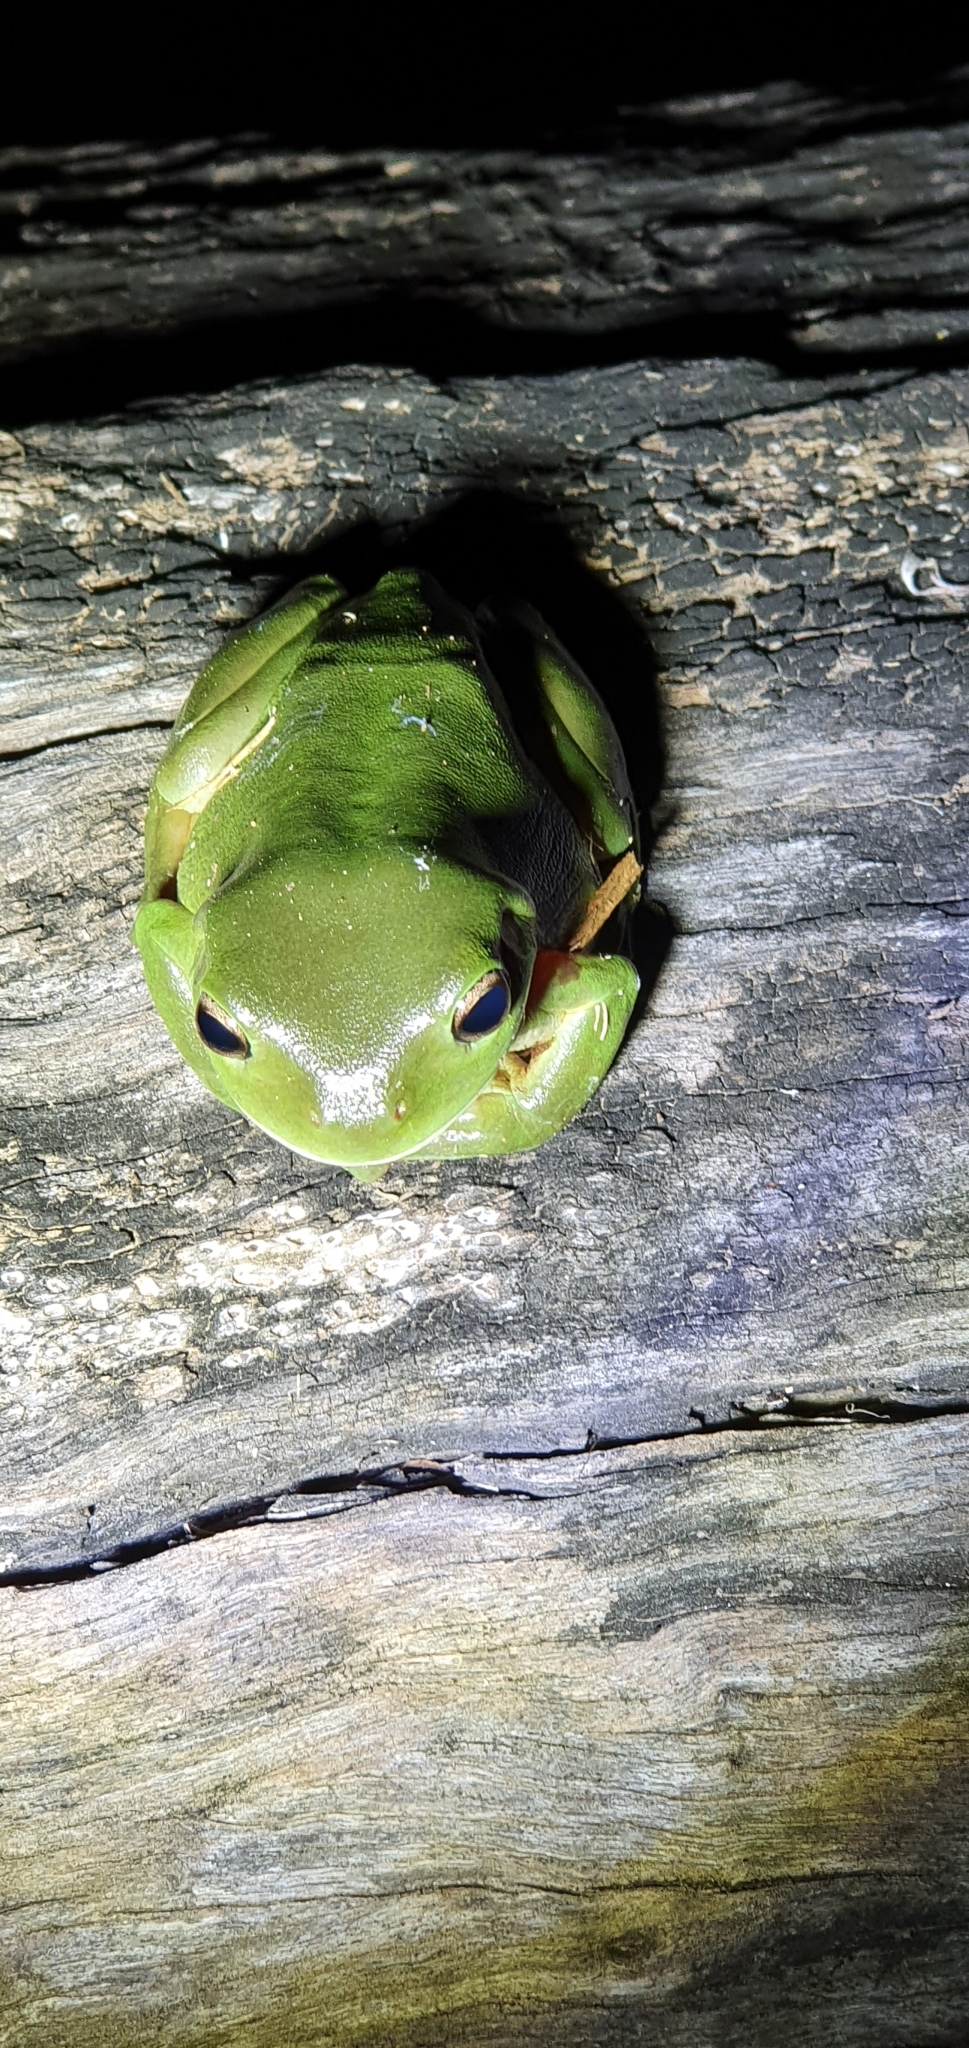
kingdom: Animalia
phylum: Chordata
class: Amphibia
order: Anura
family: Pelodryadidae
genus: Ranoidea
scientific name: Ranoidea caerulea
